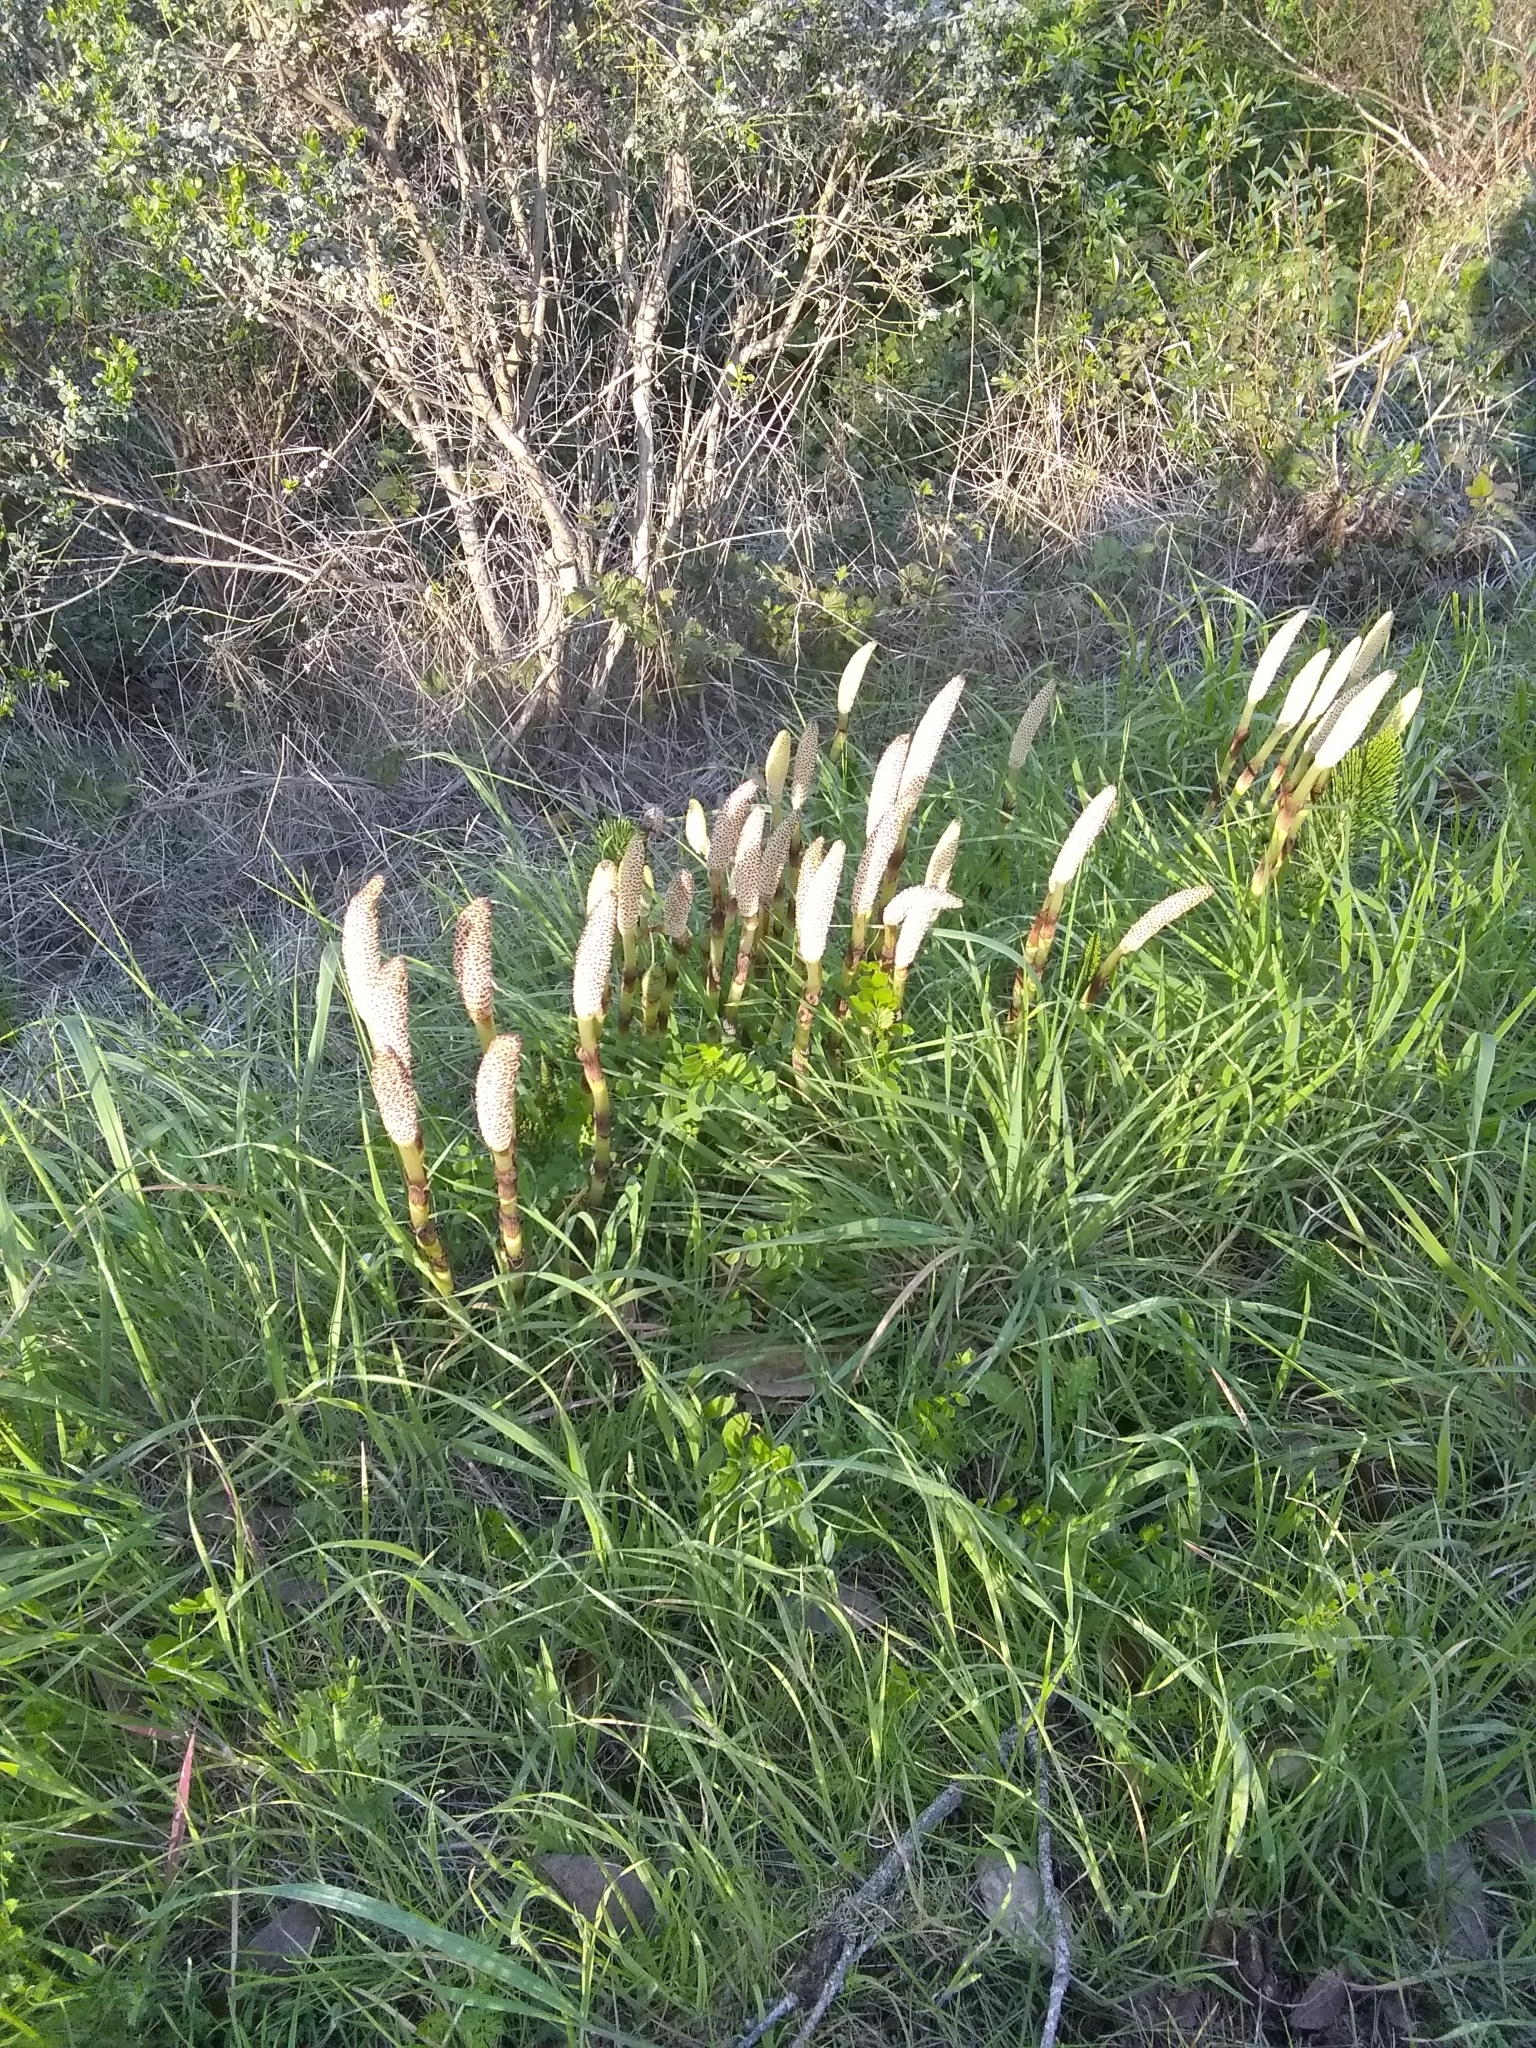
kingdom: Plantae
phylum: Tracheophyta
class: Polypodiopsida
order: Equisetales
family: Equisetaceae
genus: Equisetum
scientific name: Equisetum braunii
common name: Braun's horsetail
